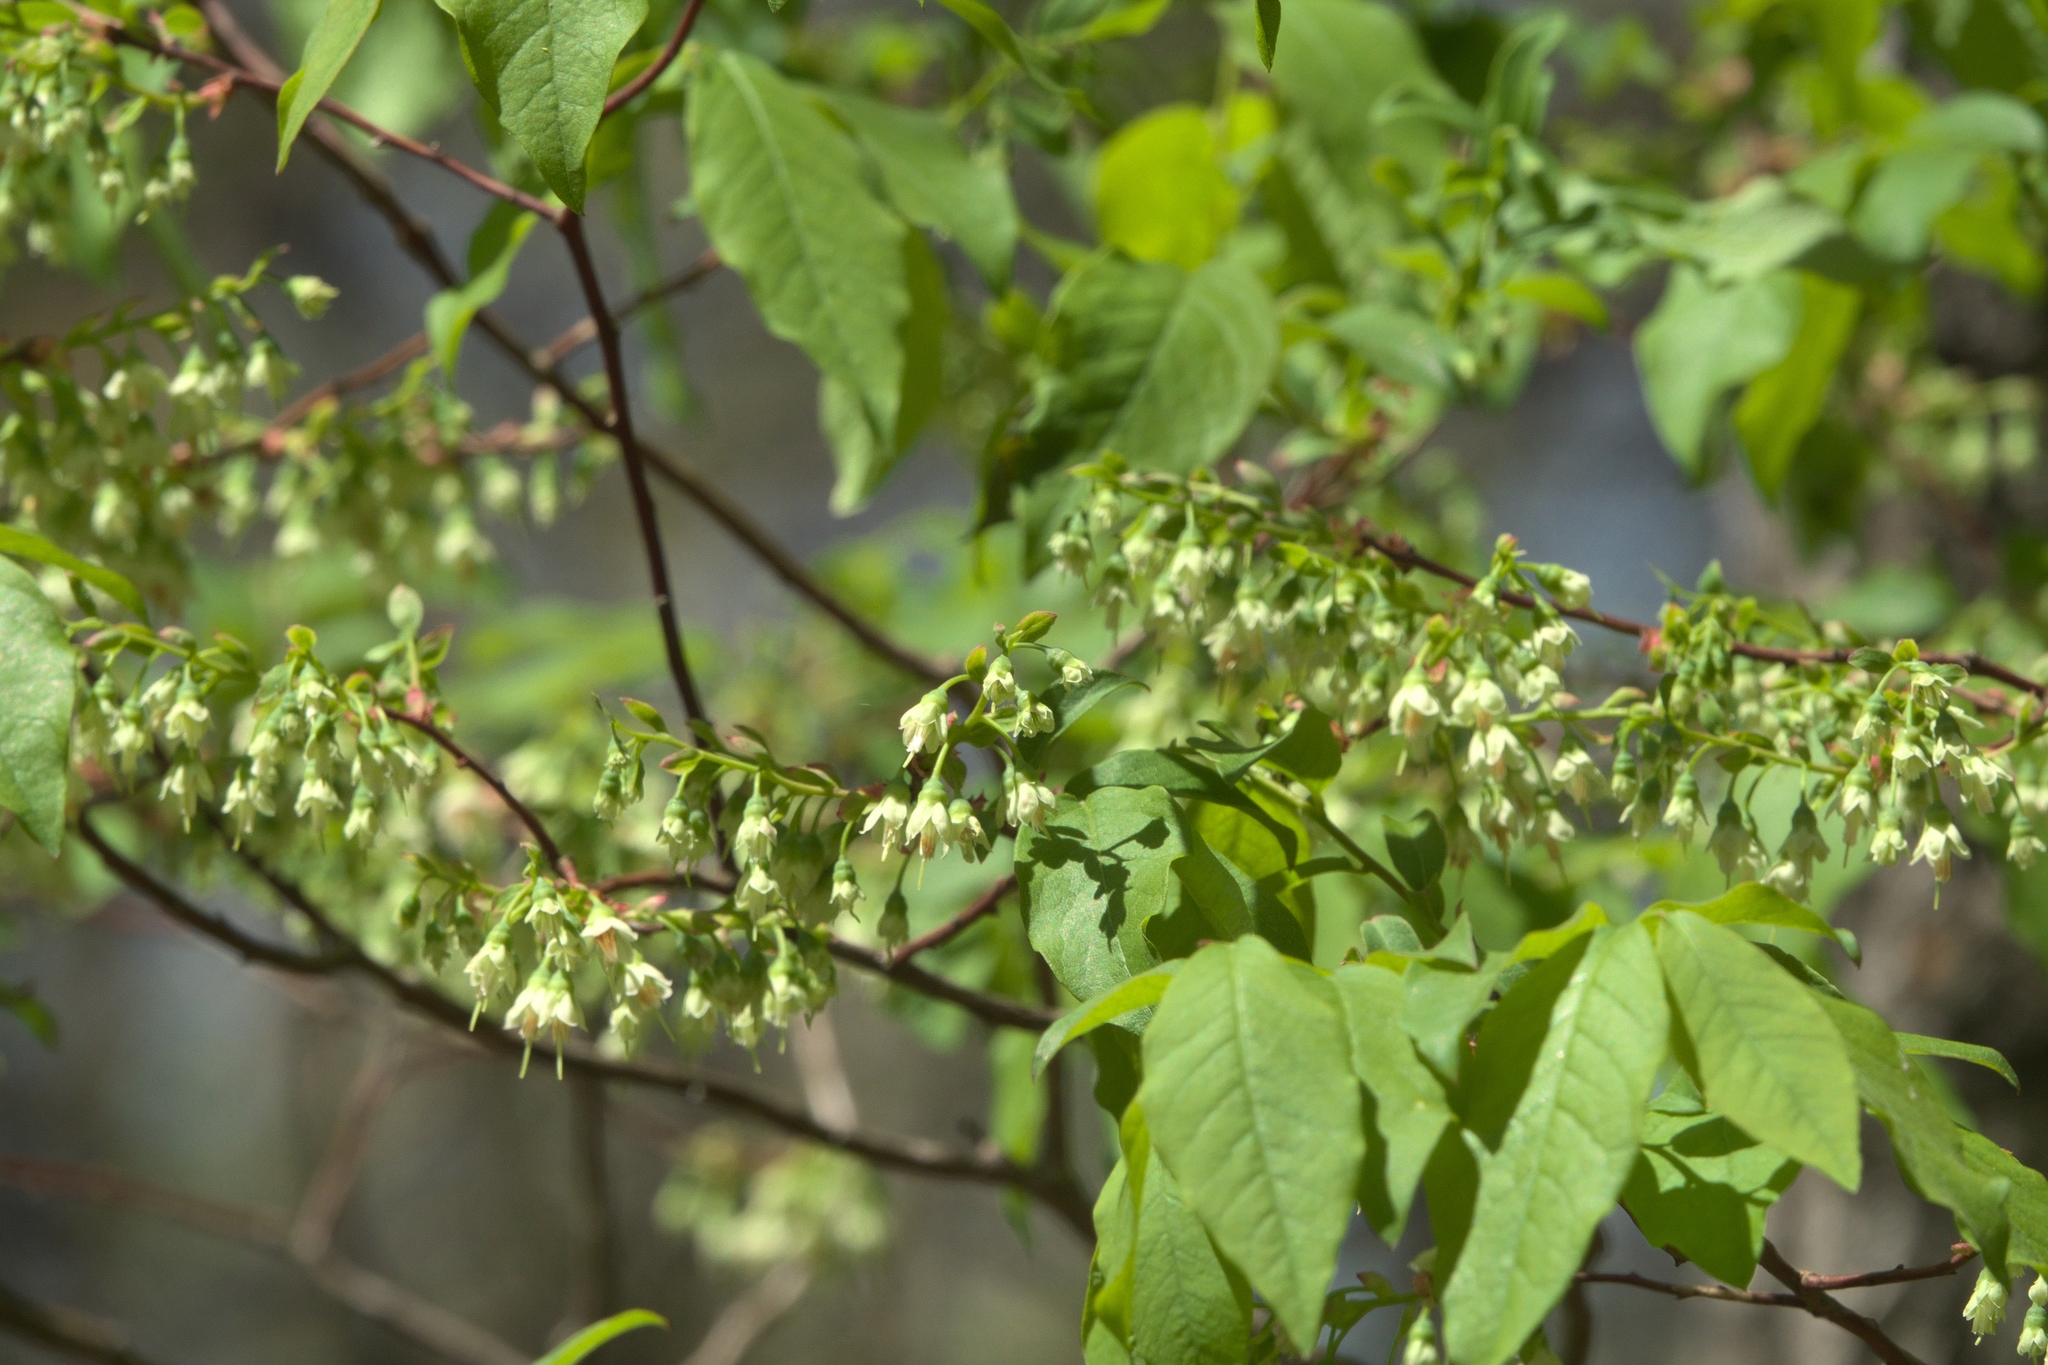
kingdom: Plantae
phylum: Tracheophyta
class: Magnoliopsida
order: Ericales
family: Ericaceae
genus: Vaccinium
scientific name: Vaccinium stamineum
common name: Deerberry
